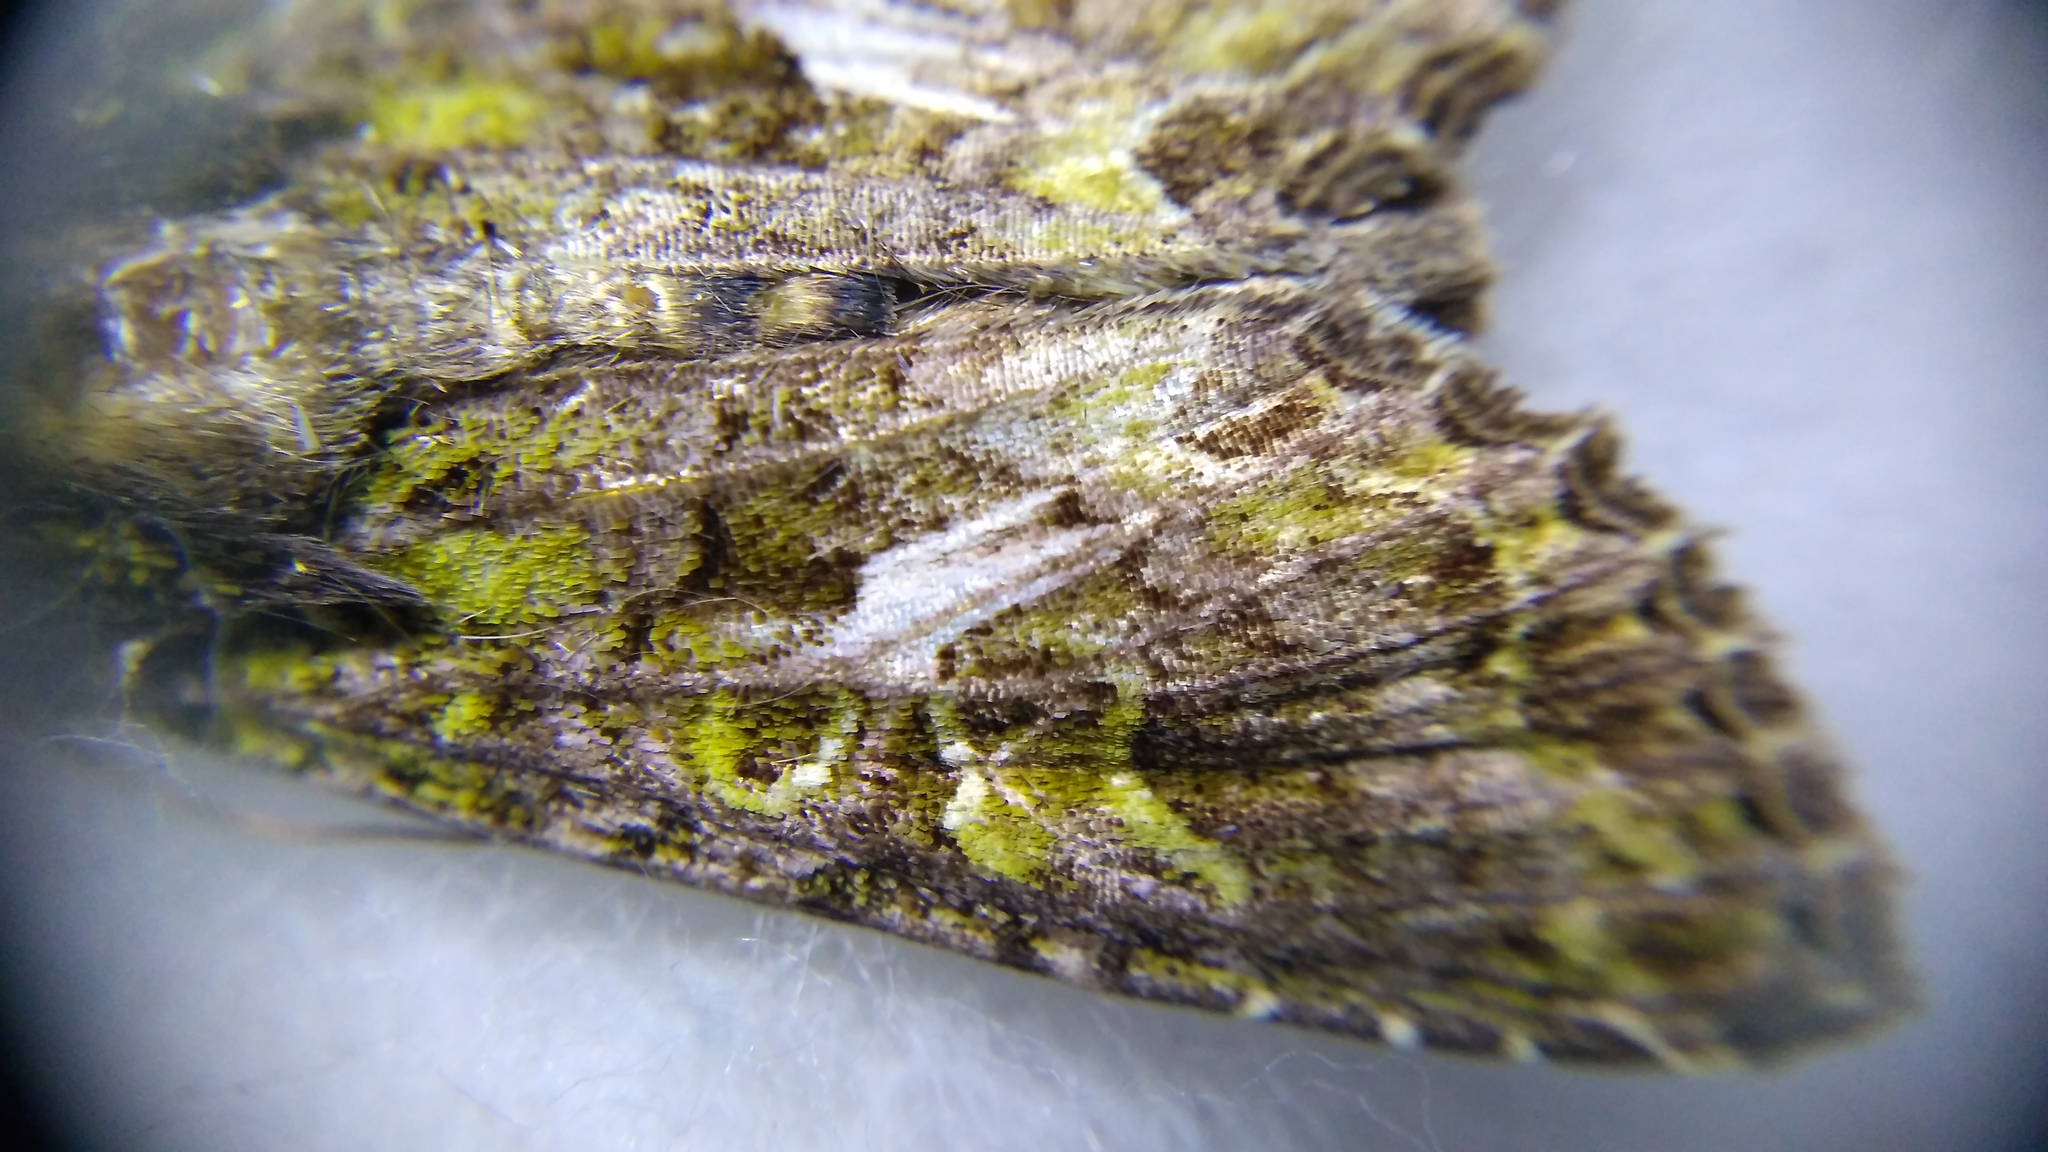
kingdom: Animalia
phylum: Arthropoda
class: Insecta
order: Lepidoptera
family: Noctuidae
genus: Trachea
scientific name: Trachea atriplicis
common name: Orache moth
